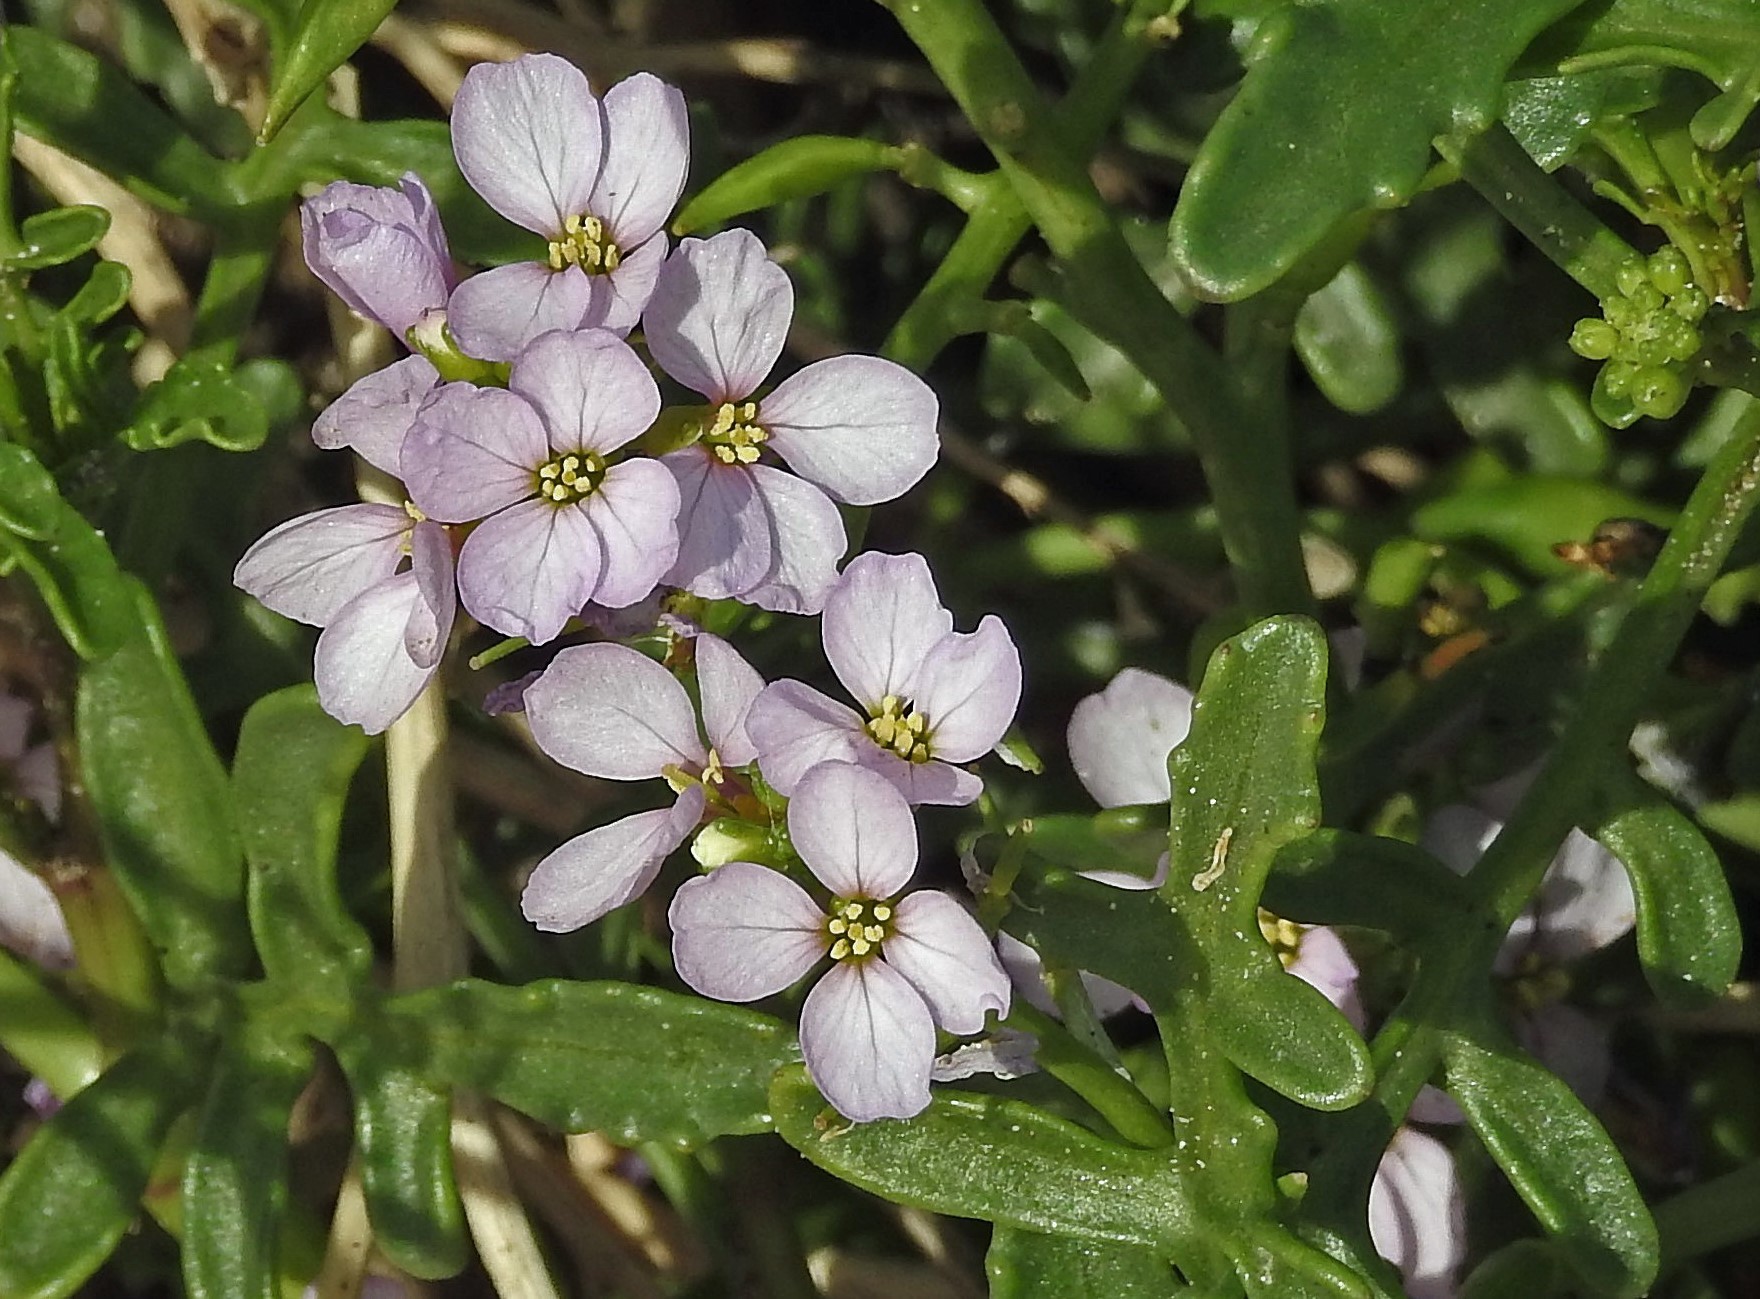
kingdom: Plantae
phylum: Tracheophyta
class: Magnoliopsida
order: Brassicales
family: Brassicaceae
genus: Cakile
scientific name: Cakile maritima
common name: Sea rocket
